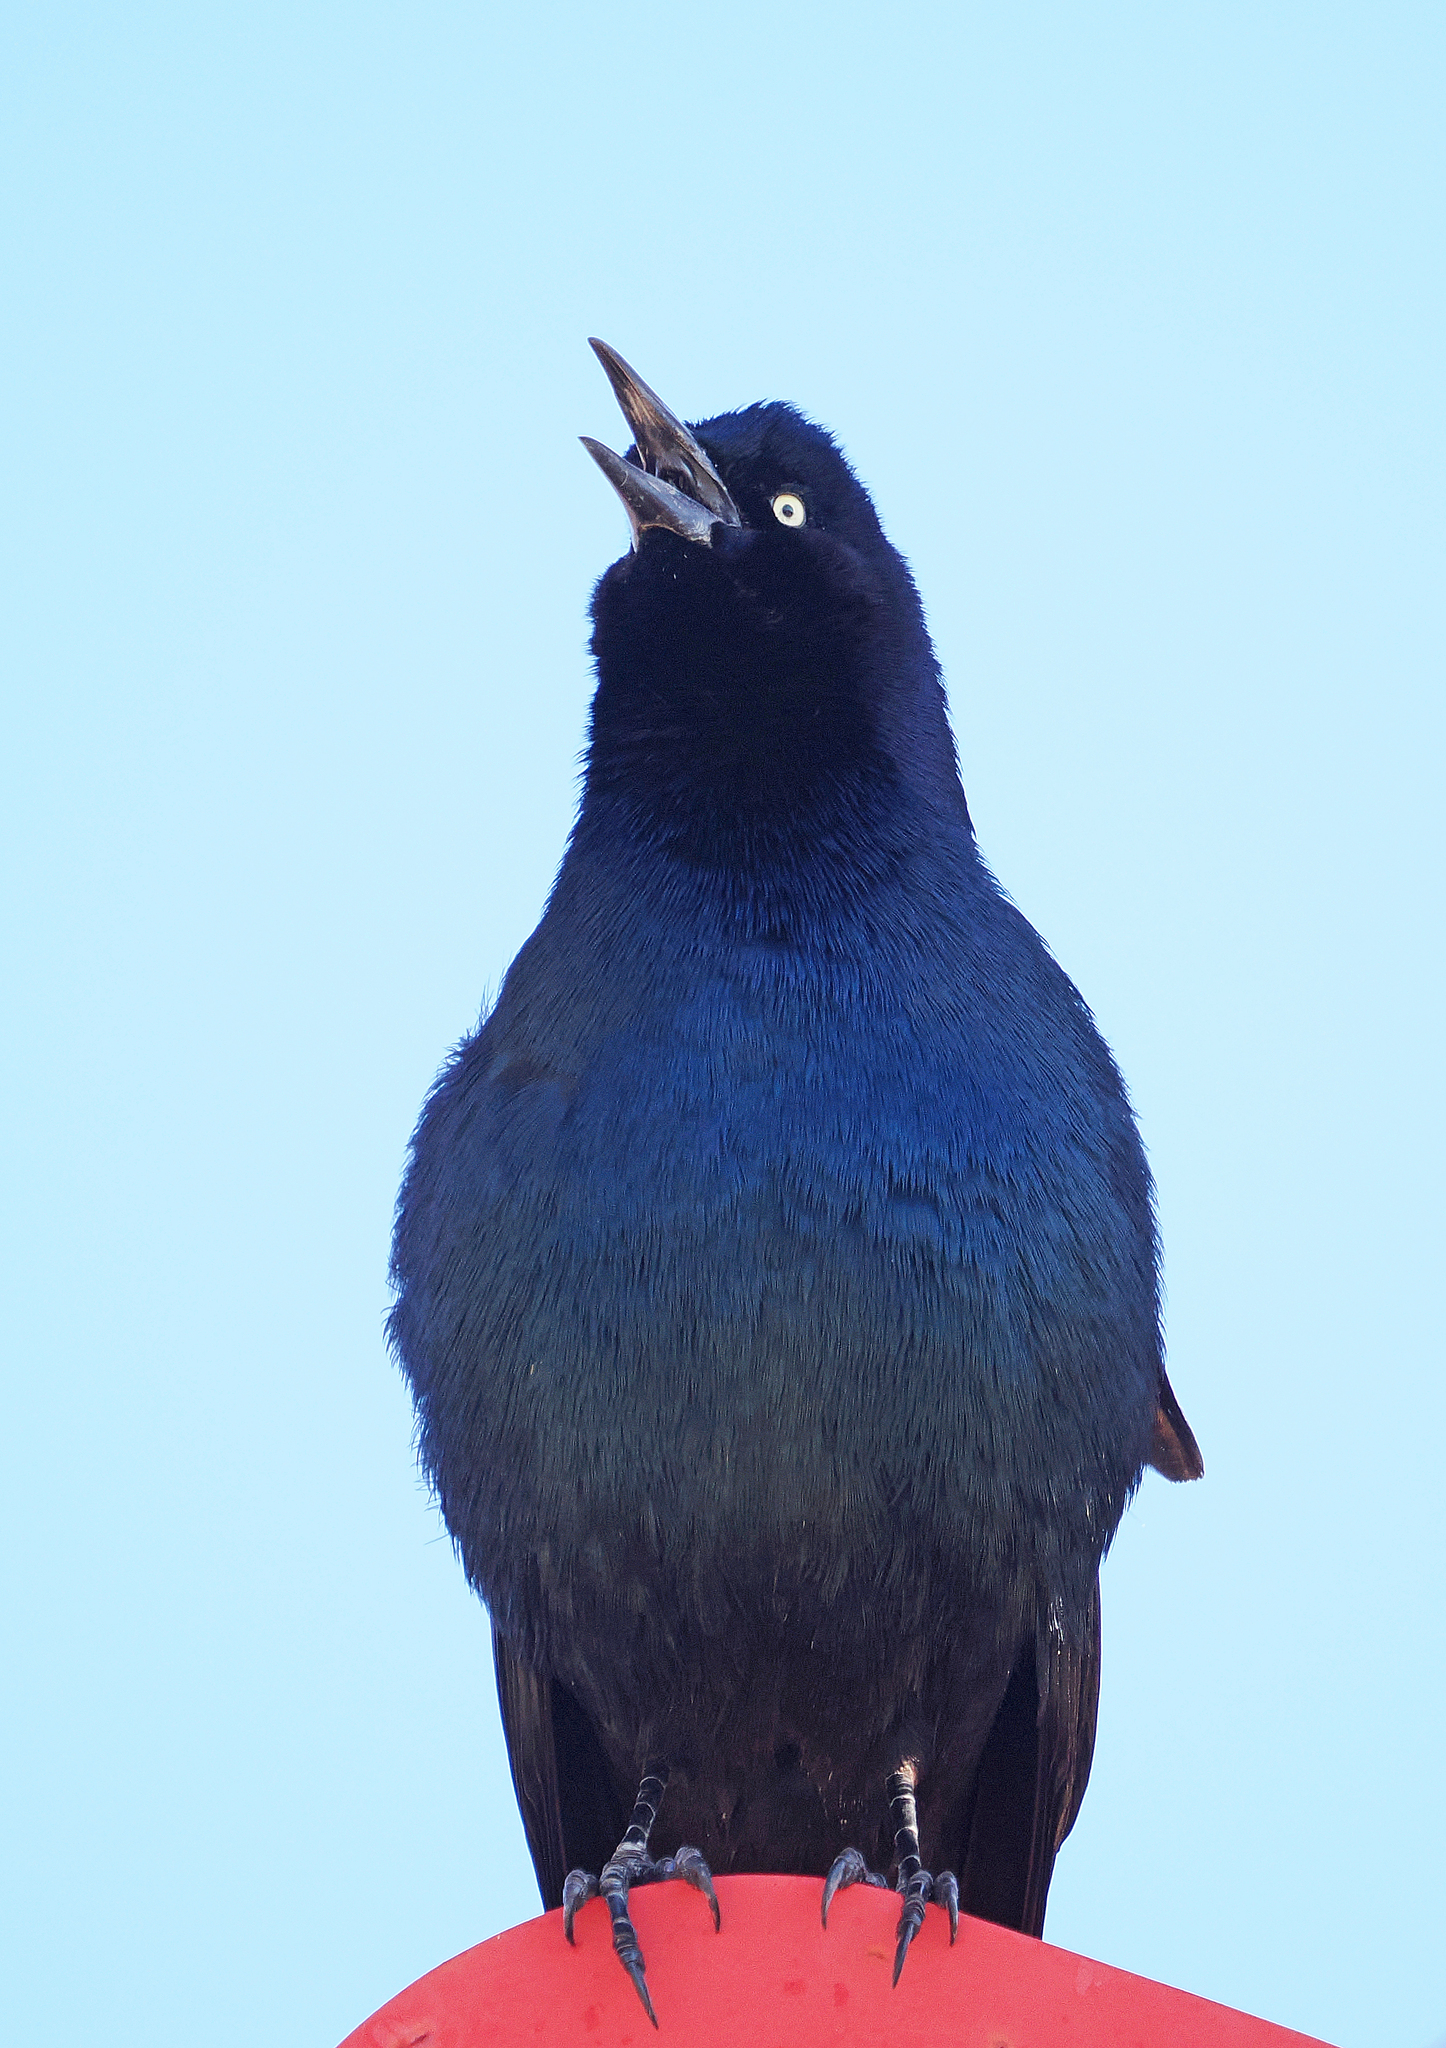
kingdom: Animalia
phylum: Chordata
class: Aves
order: Passeriformes
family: Icteridae
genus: Quiscalus
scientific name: Quiscalus major
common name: Boat-tailed grackle
